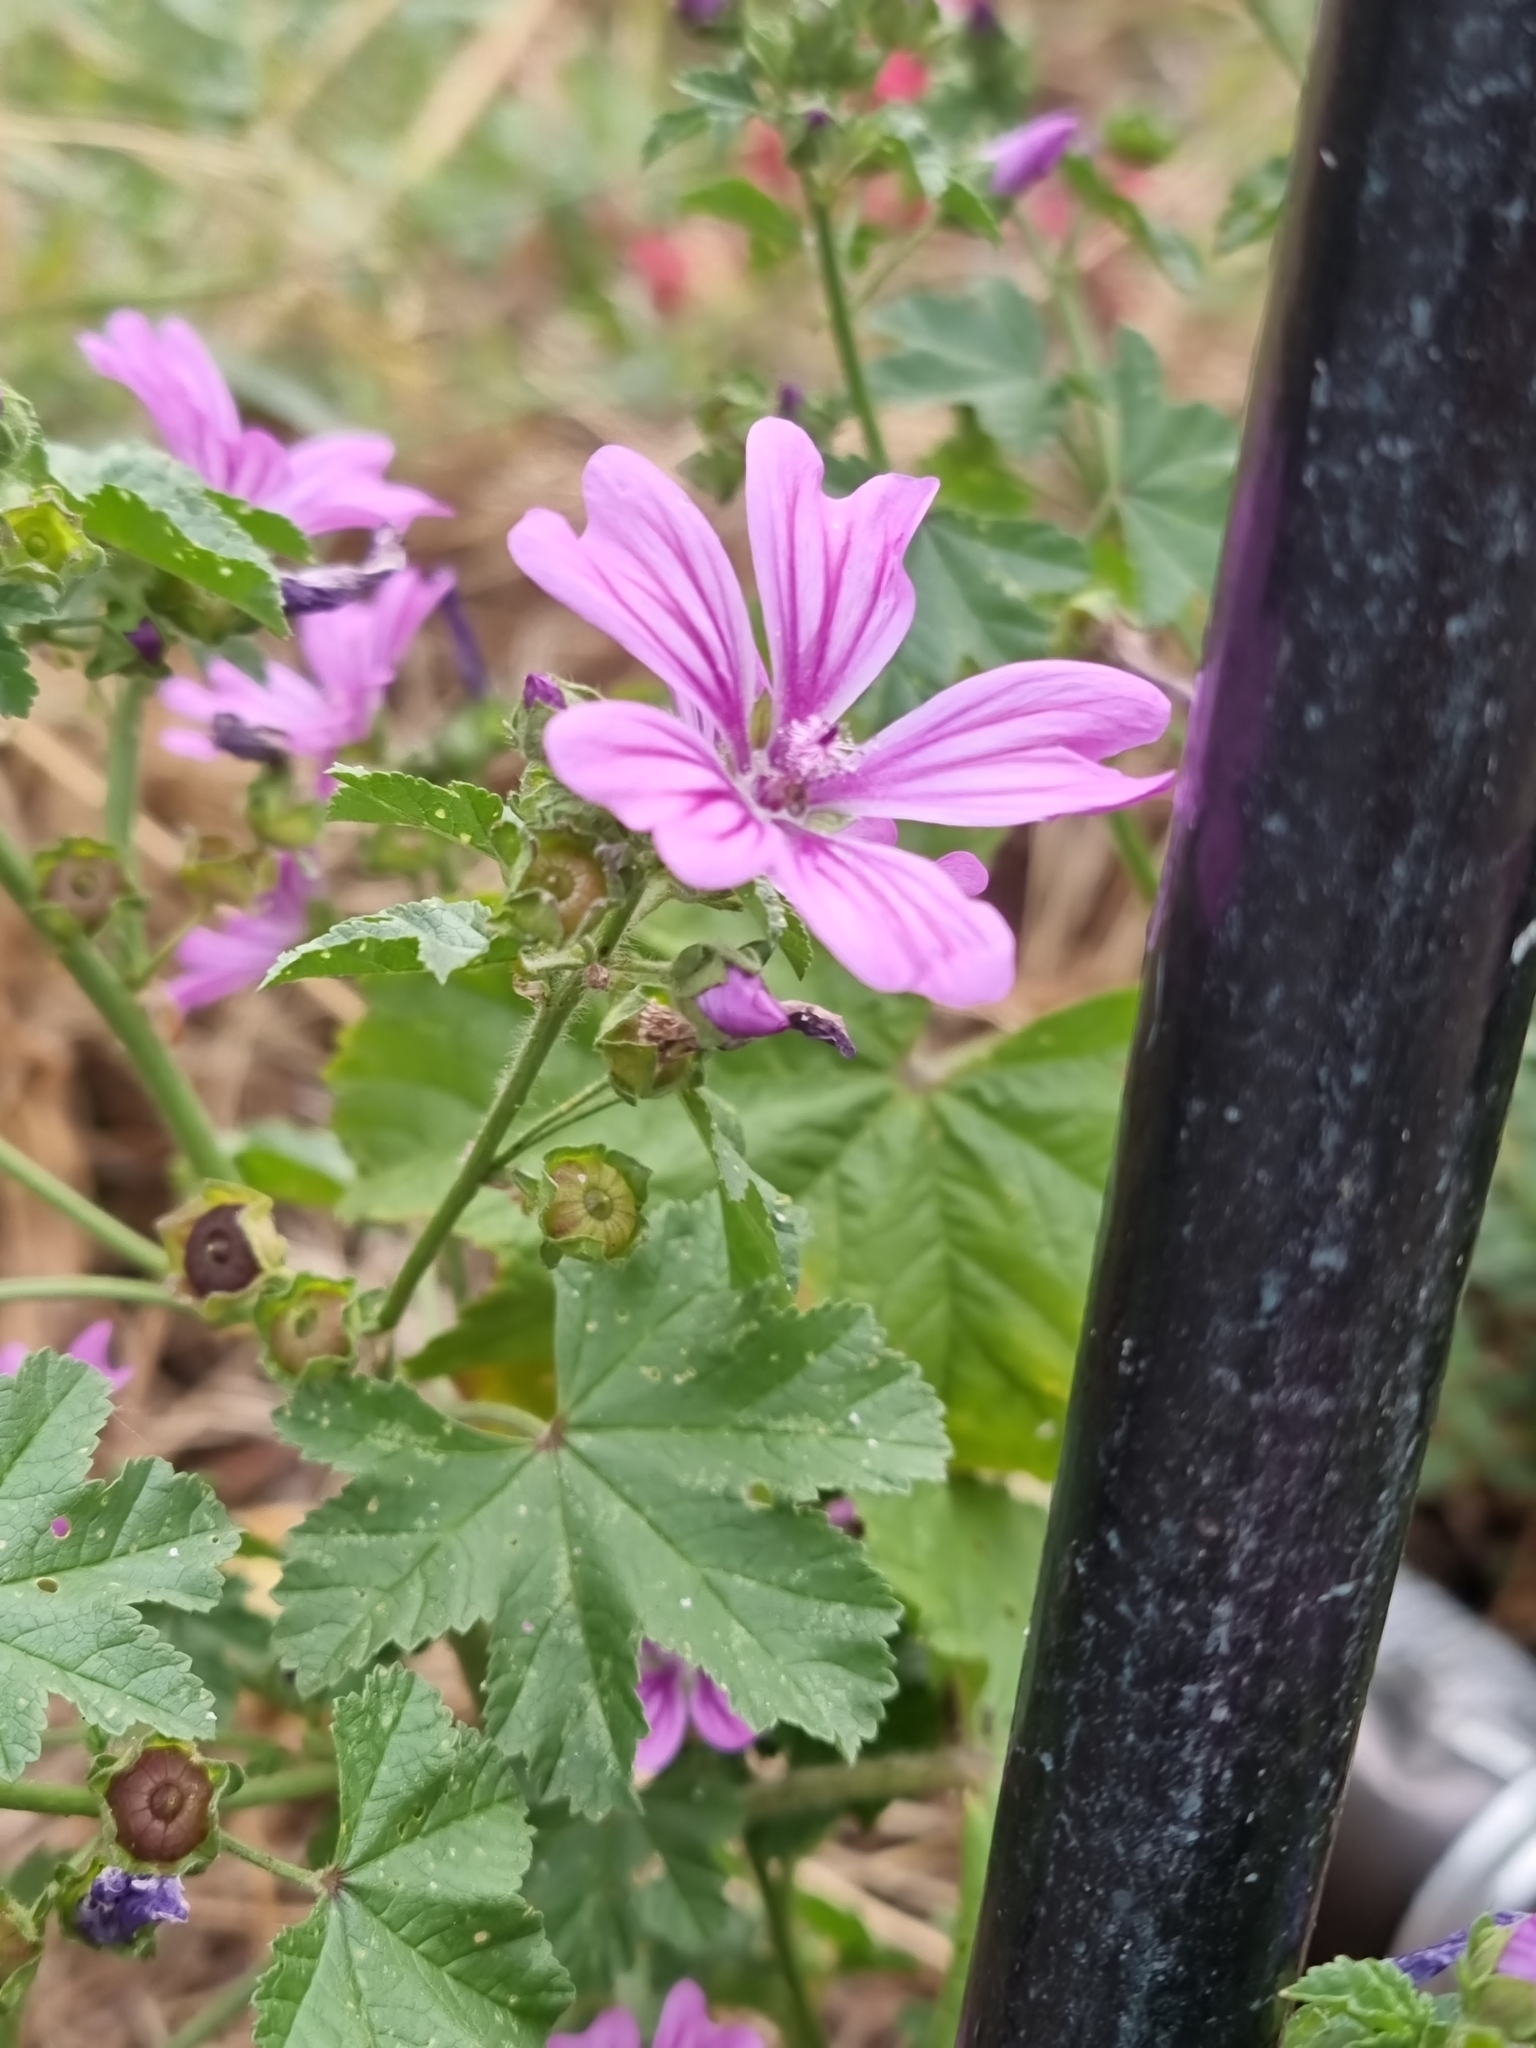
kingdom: Plantae
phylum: Tracheophyta
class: Magnoliopsida
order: Malvales
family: Malvaceae
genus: Malva
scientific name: Malva sylvestris
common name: Common mallow
